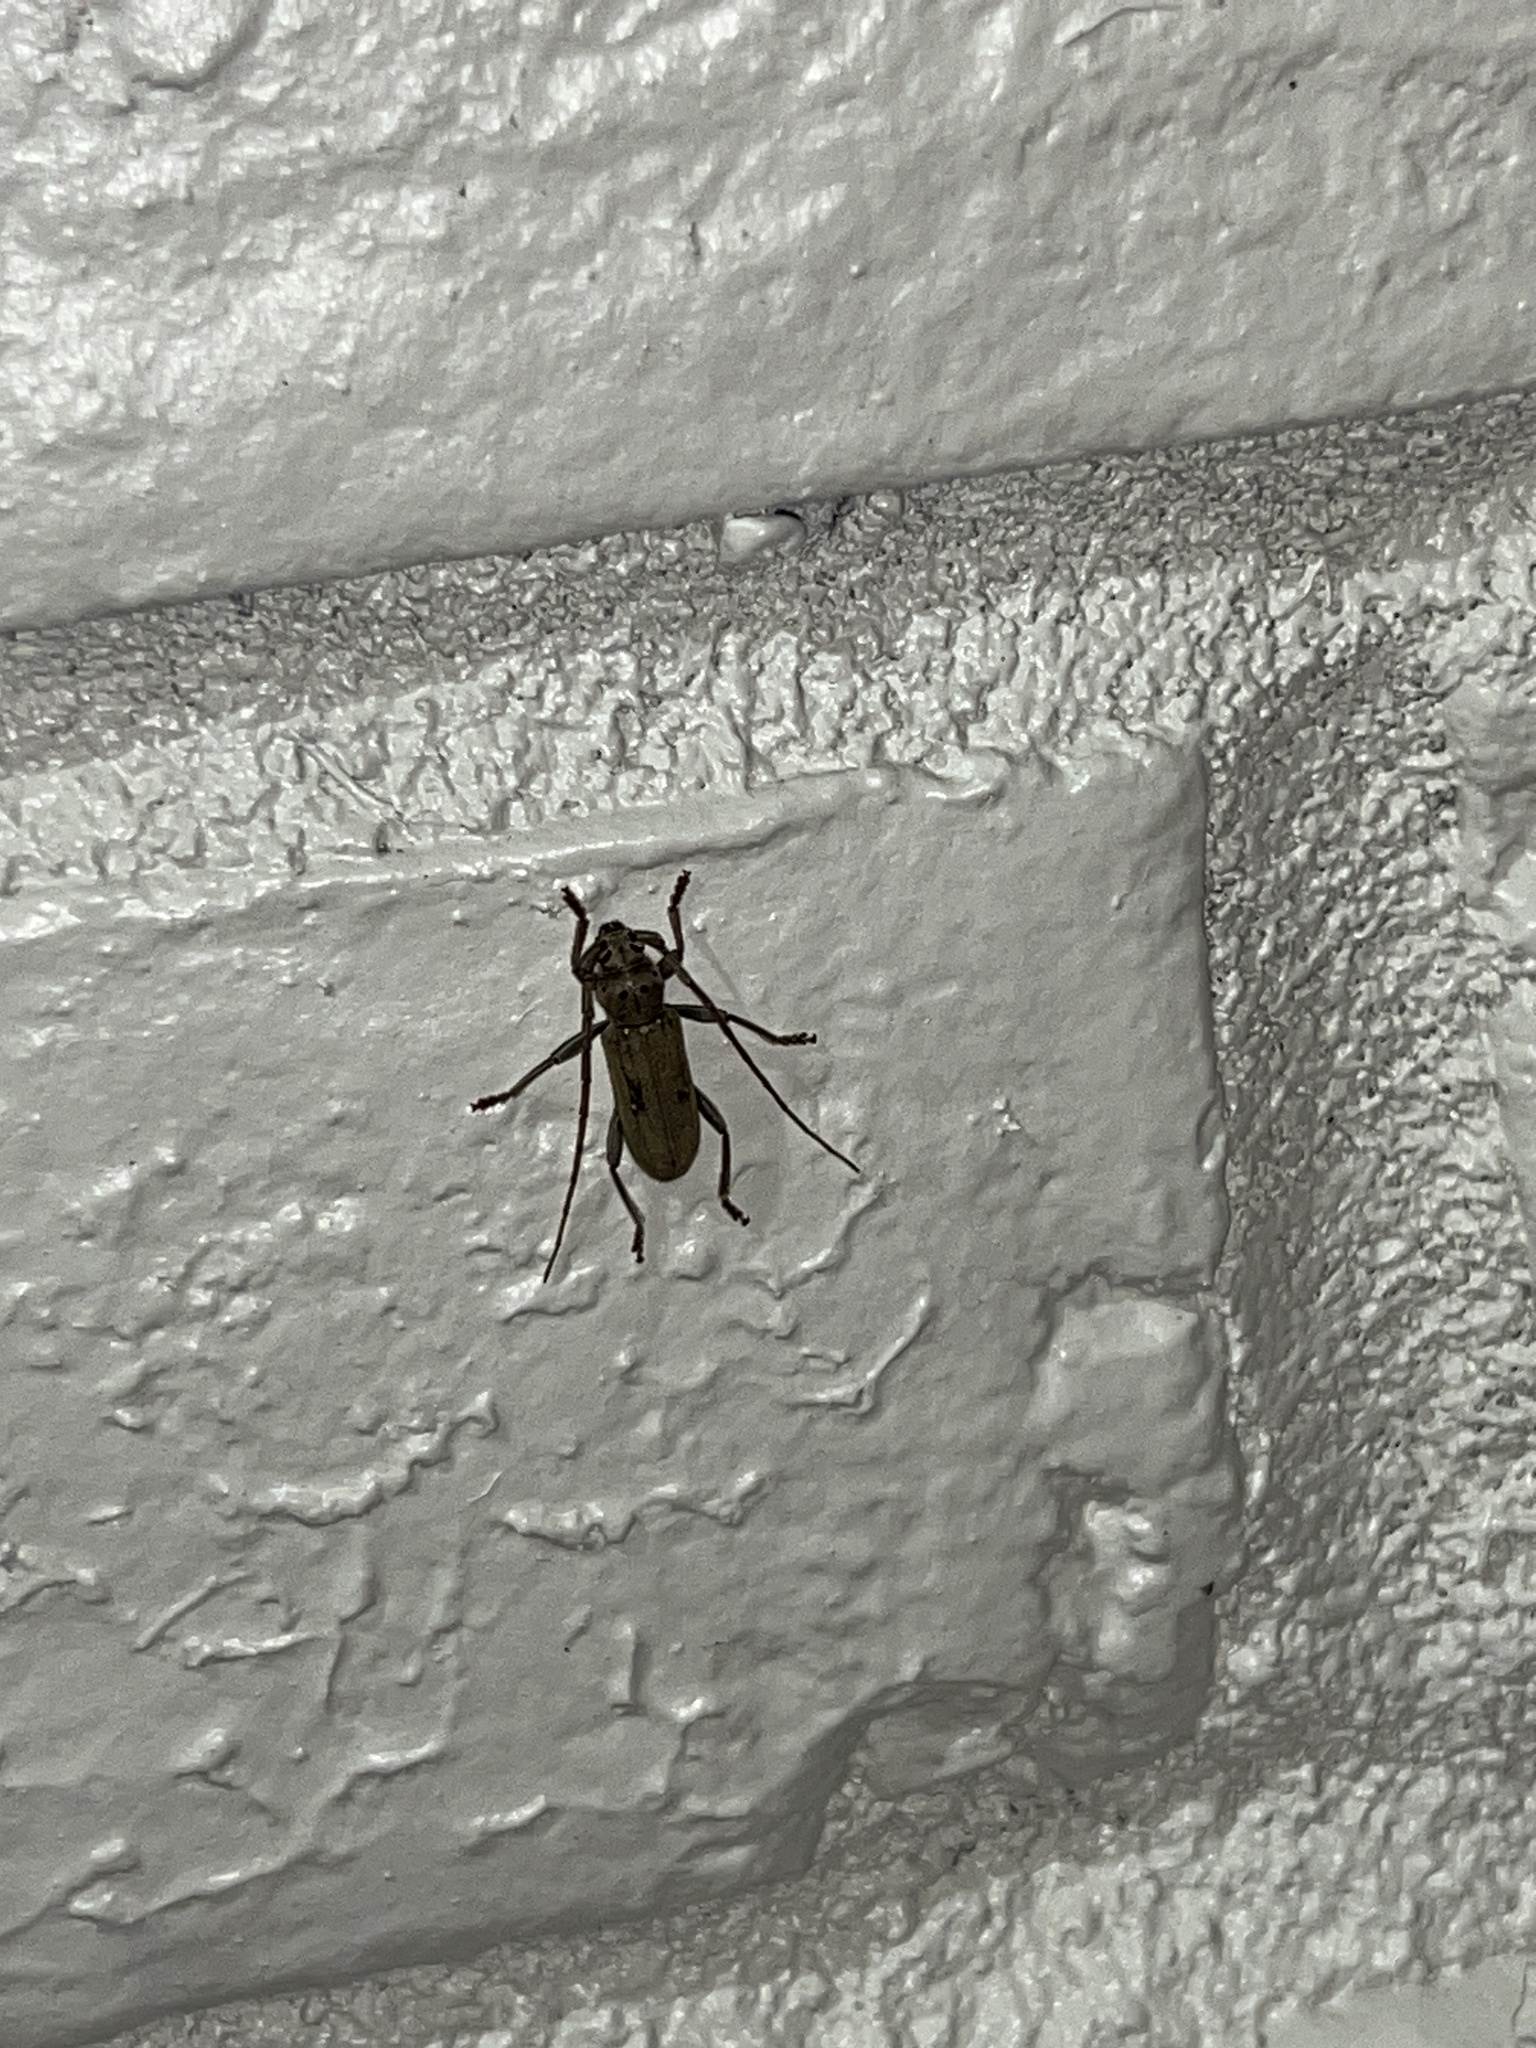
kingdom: Animalia
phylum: Arthropoda
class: Insecta
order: Coleoptera
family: Cerambycidae
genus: Eburia
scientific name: Eburia mutica
